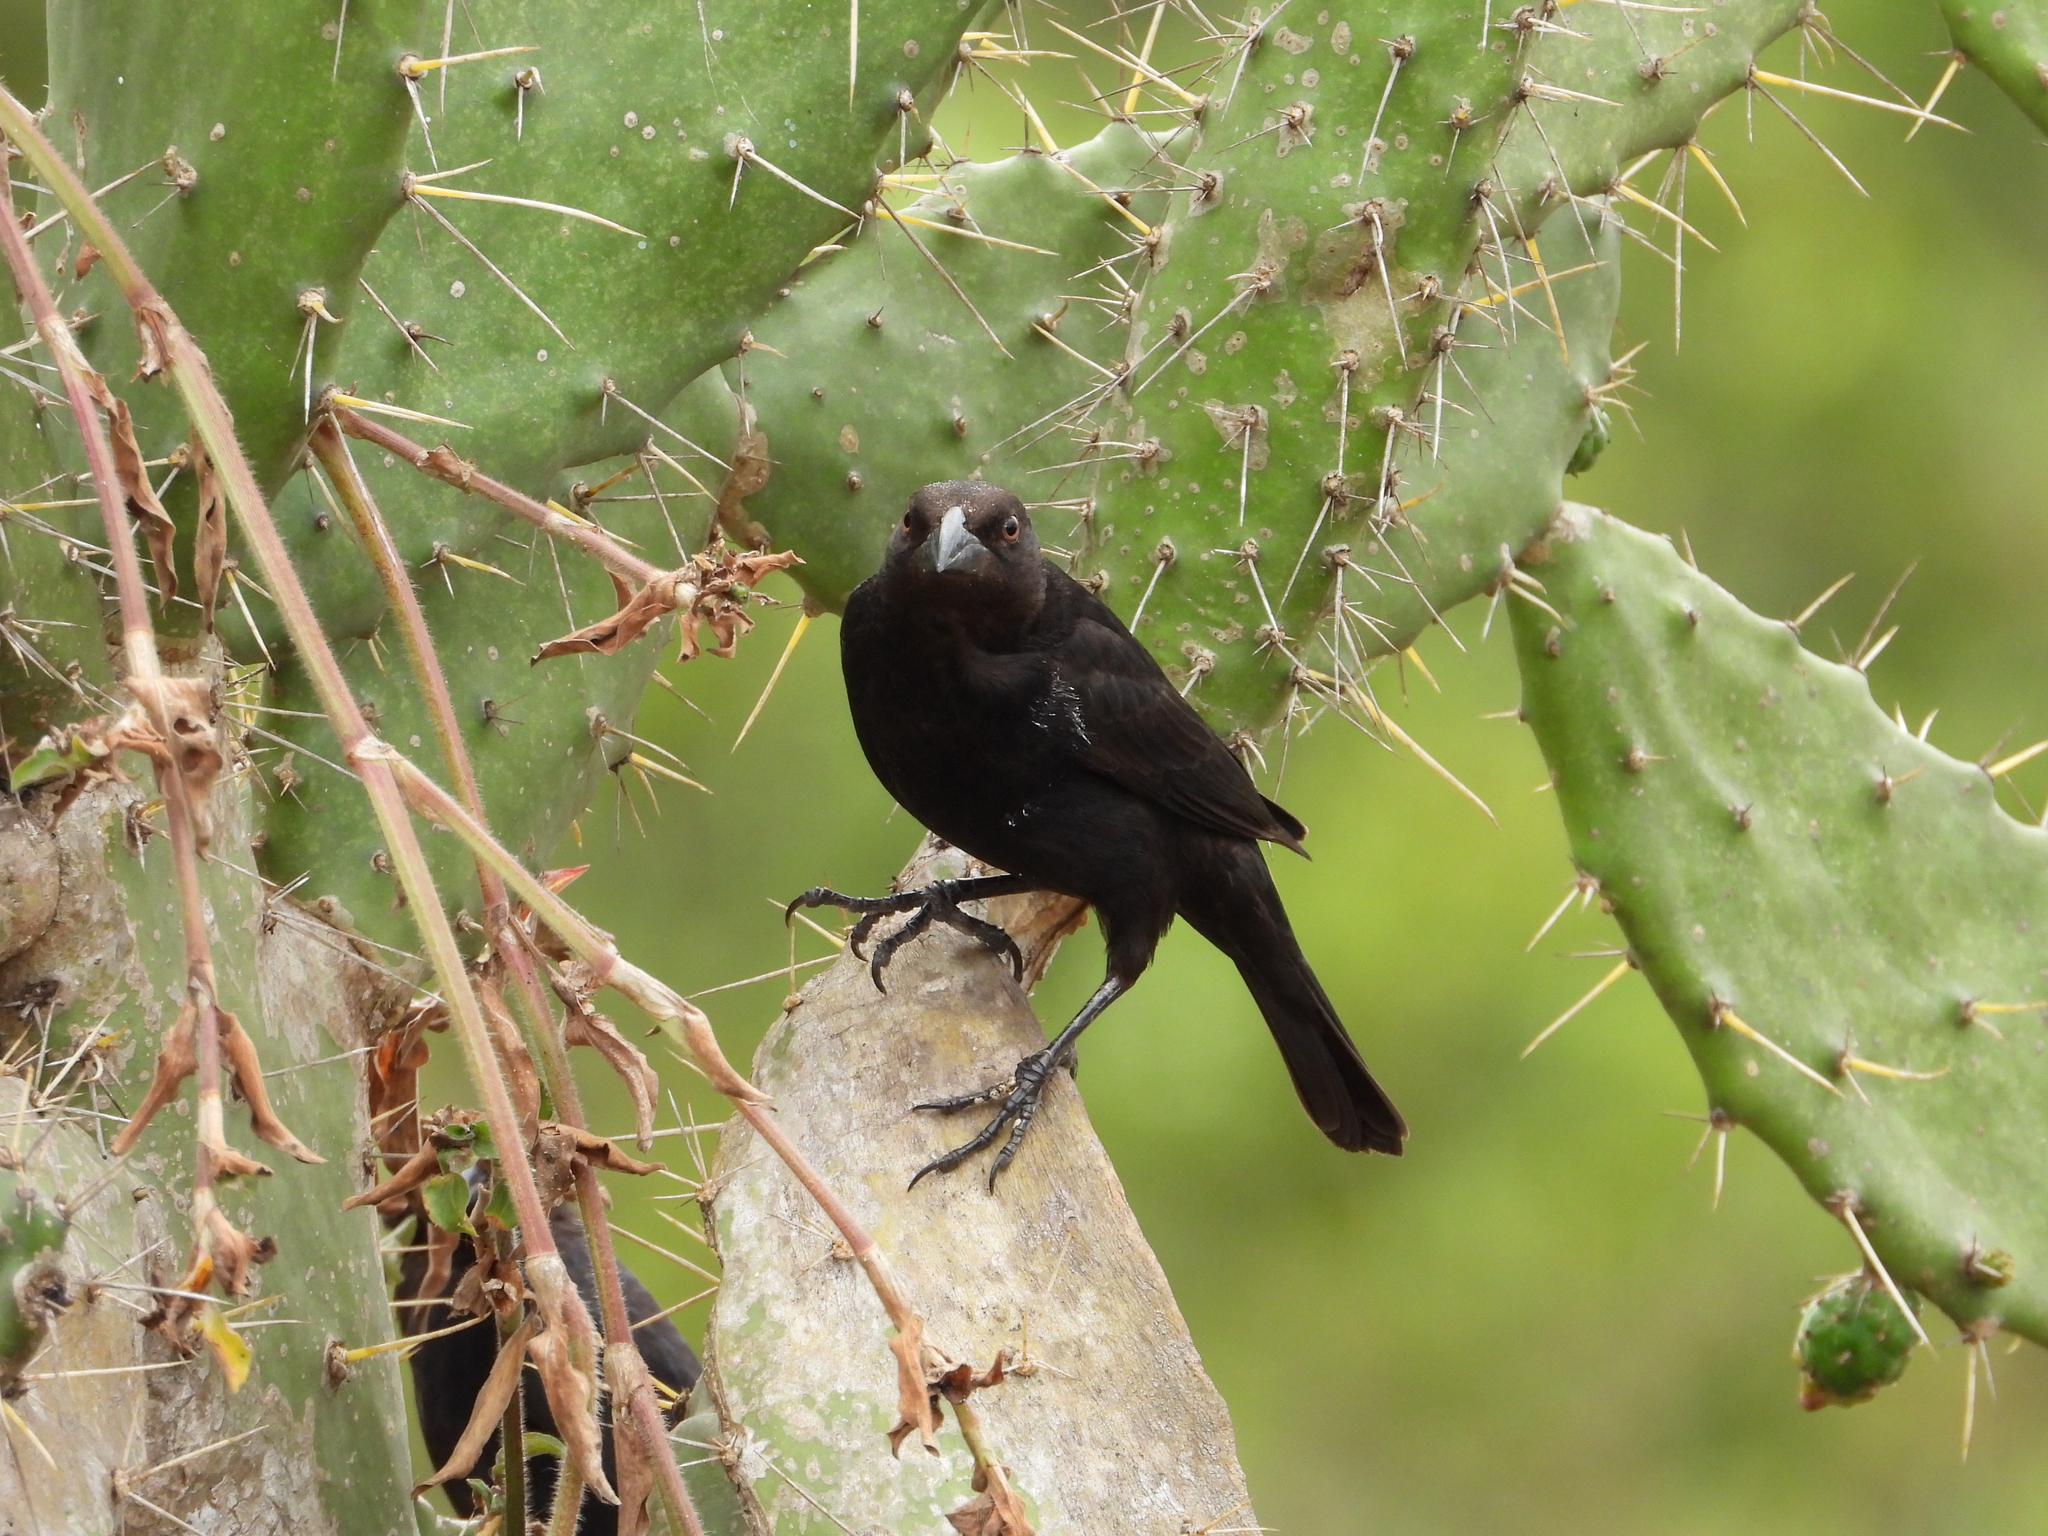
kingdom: Animalia
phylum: Chordata
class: Aves
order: Passeriformes
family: Icteridae
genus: Molothrus
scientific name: Molothrus aeneus
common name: Bronzed cowbird
